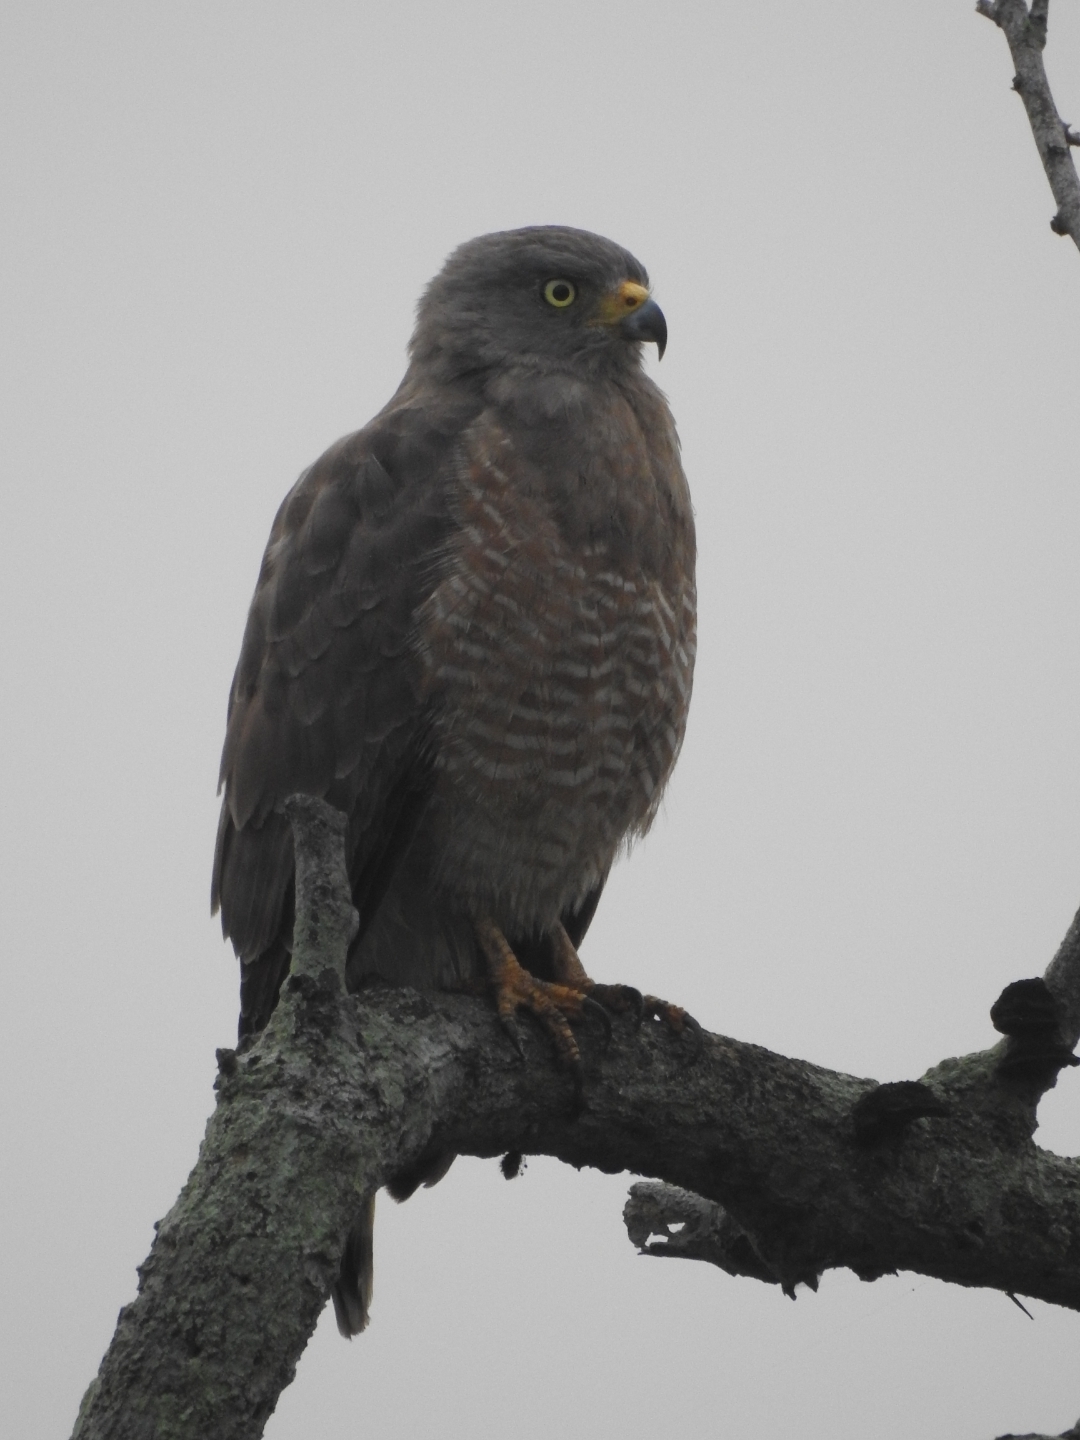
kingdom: Animalia
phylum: Chordata
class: Aves
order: Accipitriformes
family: Accipitridae
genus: Rupornis
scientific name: Rupornis magnirostris
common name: Roadside hawk
